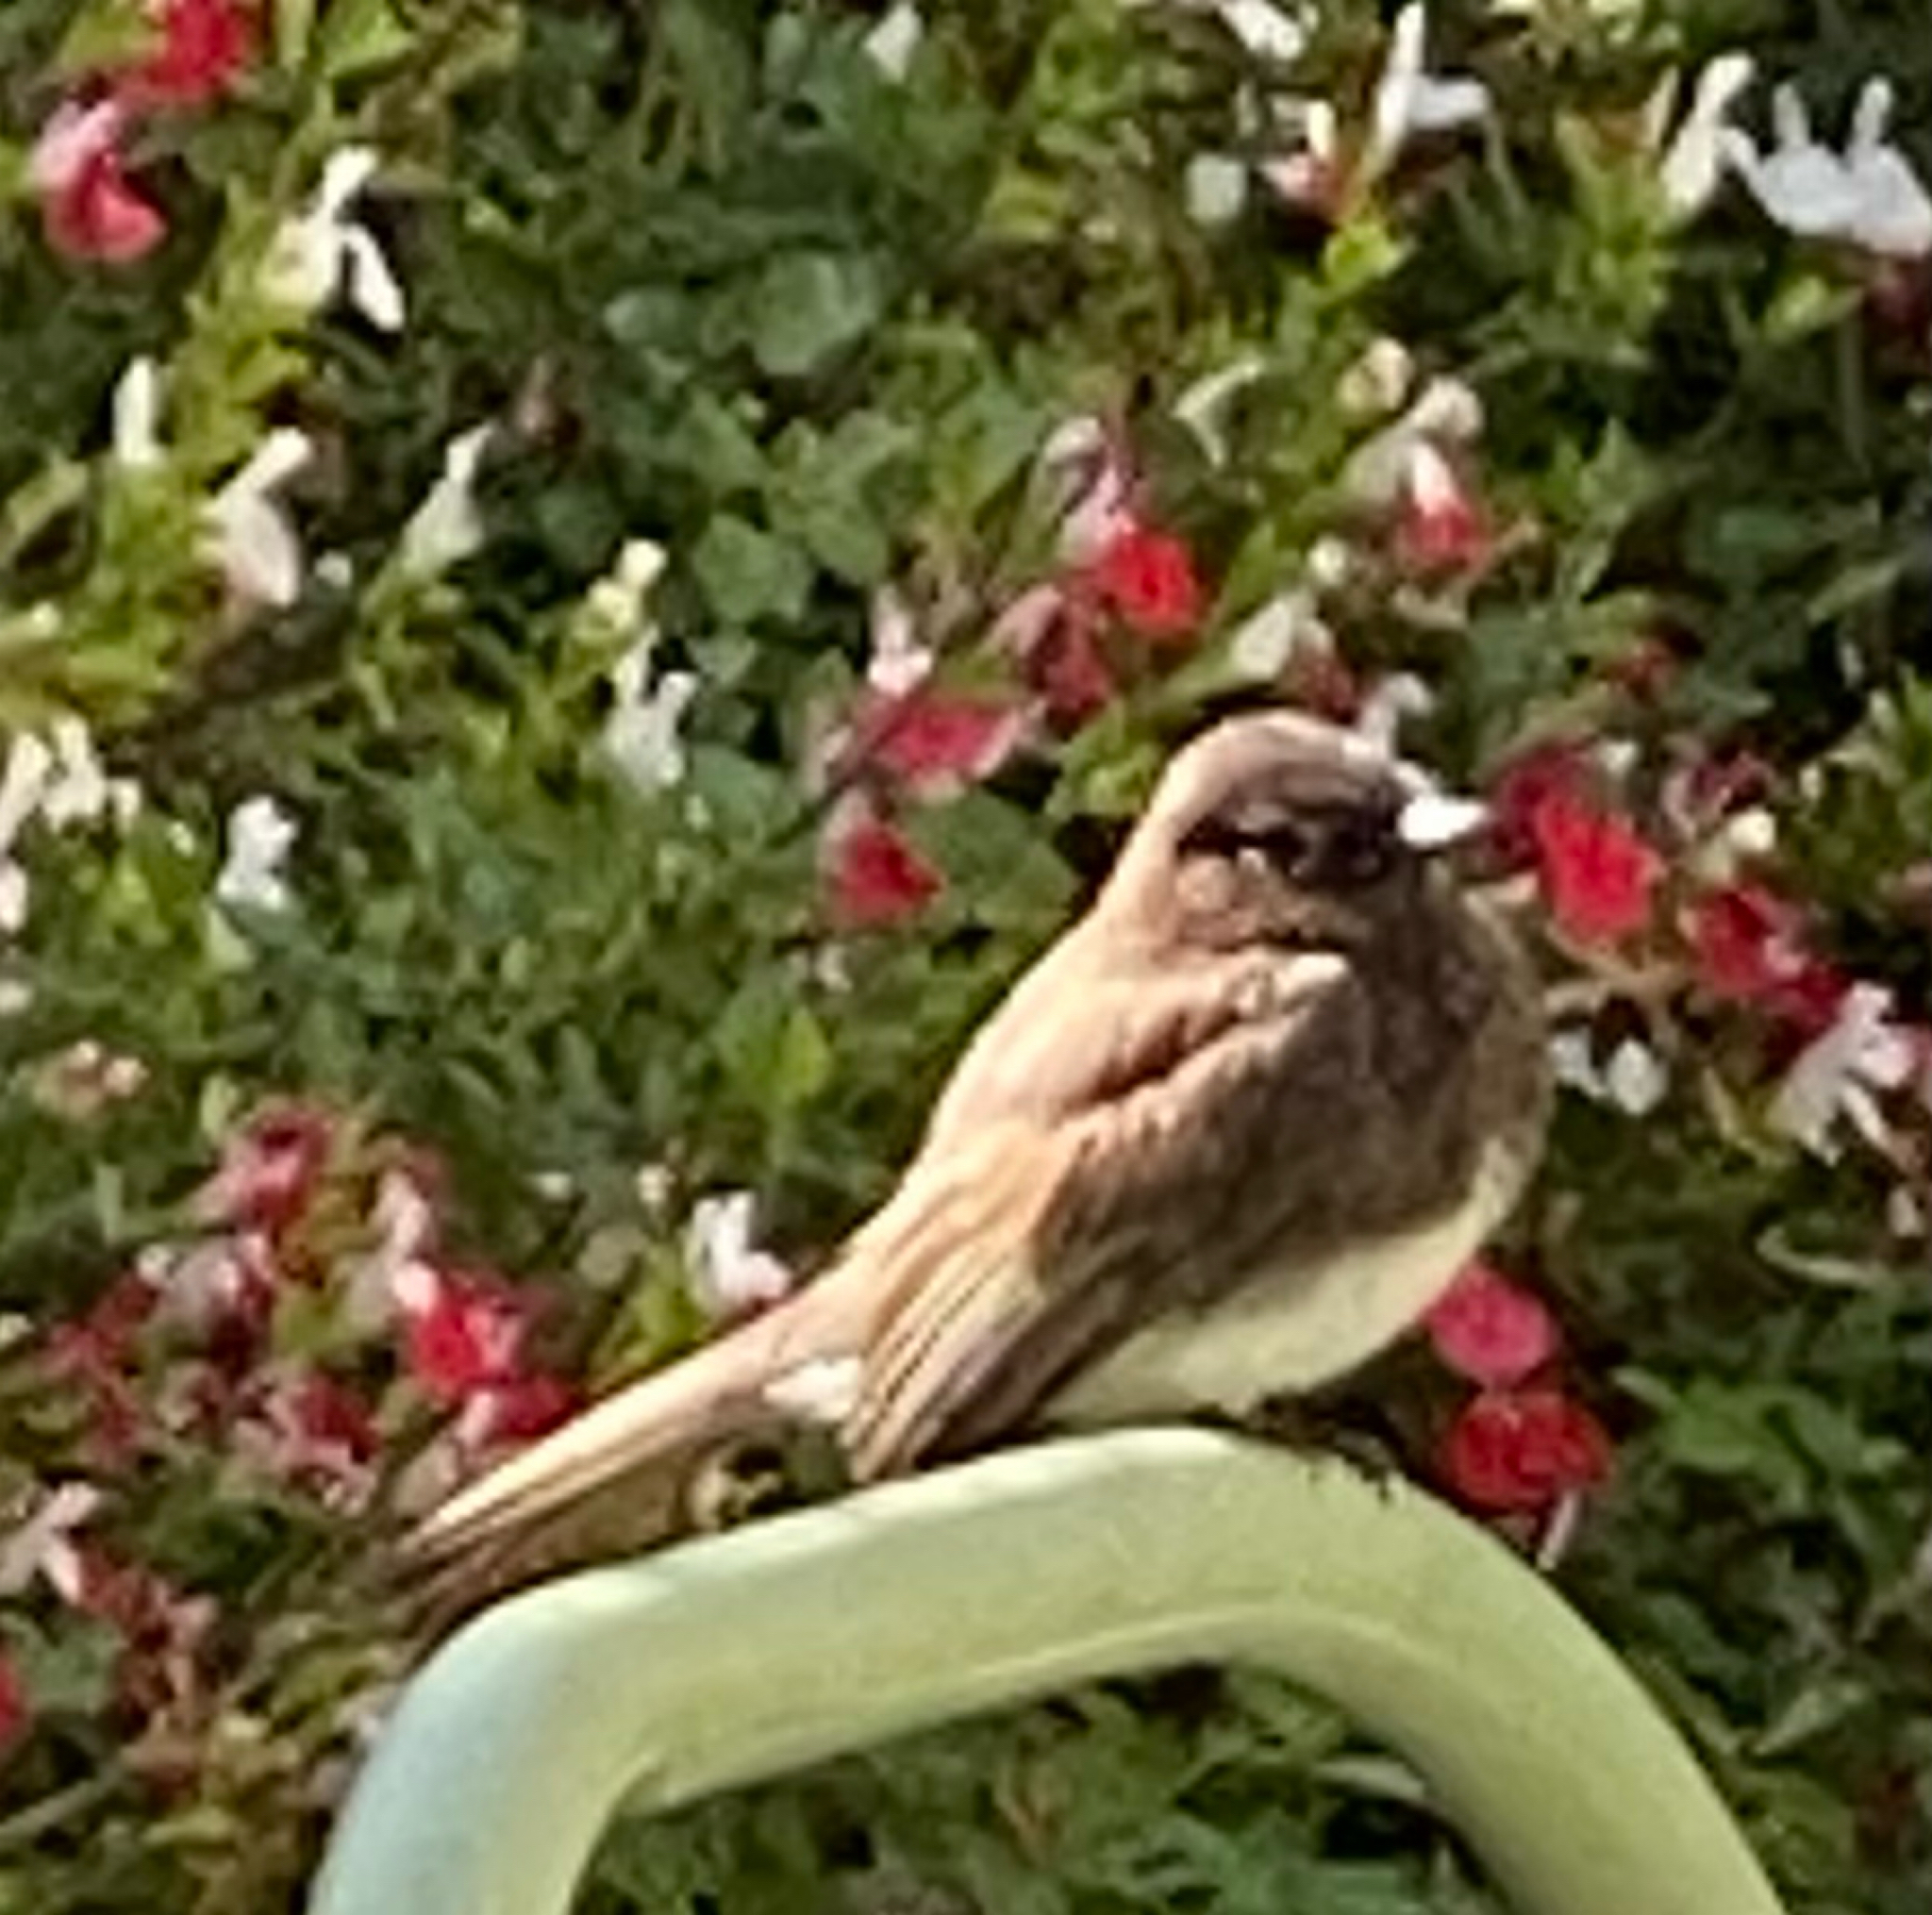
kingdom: Animalia
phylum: Chordata
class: Aves
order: Passeriformes
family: Tyrannidae
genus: Sayornis
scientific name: Sayornis nigricans
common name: Black phoebe
